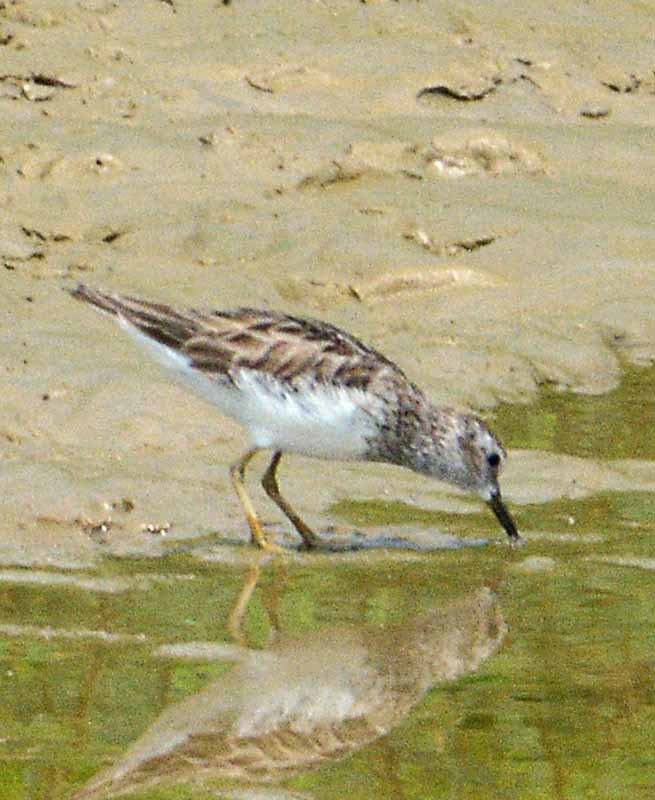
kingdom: Animalia
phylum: Chordata
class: Aves
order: Charadriiformes
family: Scolopacidae
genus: Calidris
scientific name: Calidris minutilla
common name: Least sandpiper
